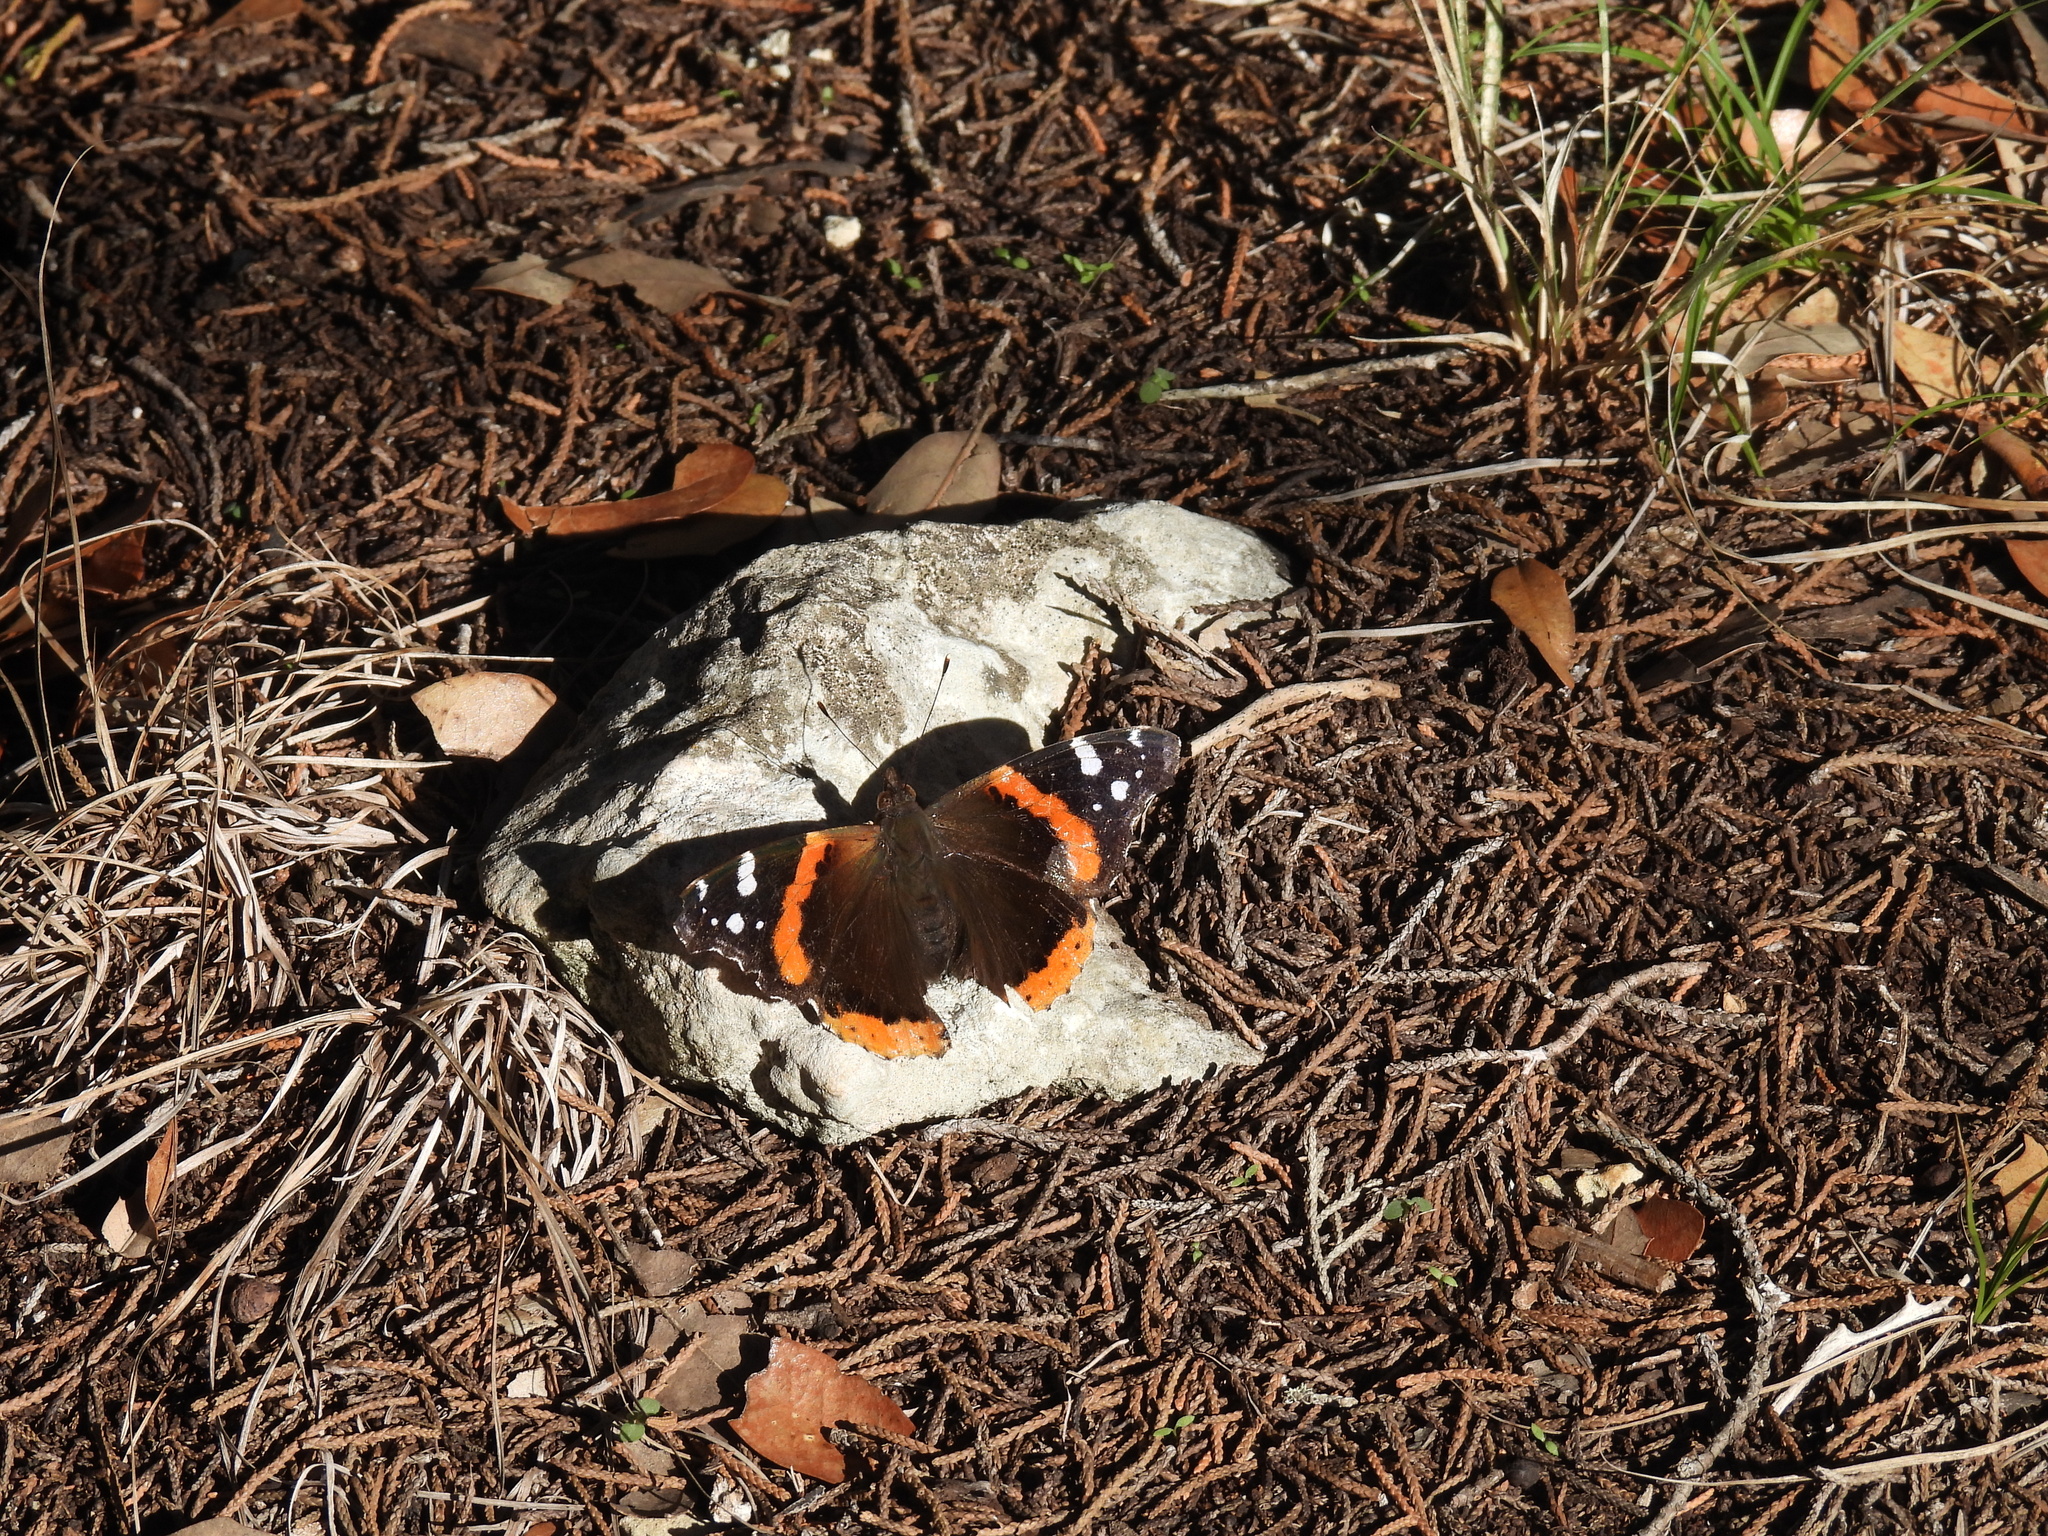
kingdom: Animalia
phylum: Arthropoda
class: Insecta
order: Lepidoptera
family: Nymphalidae
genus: Vanessa
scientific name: Vanessa atalanta
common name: Red admiral
